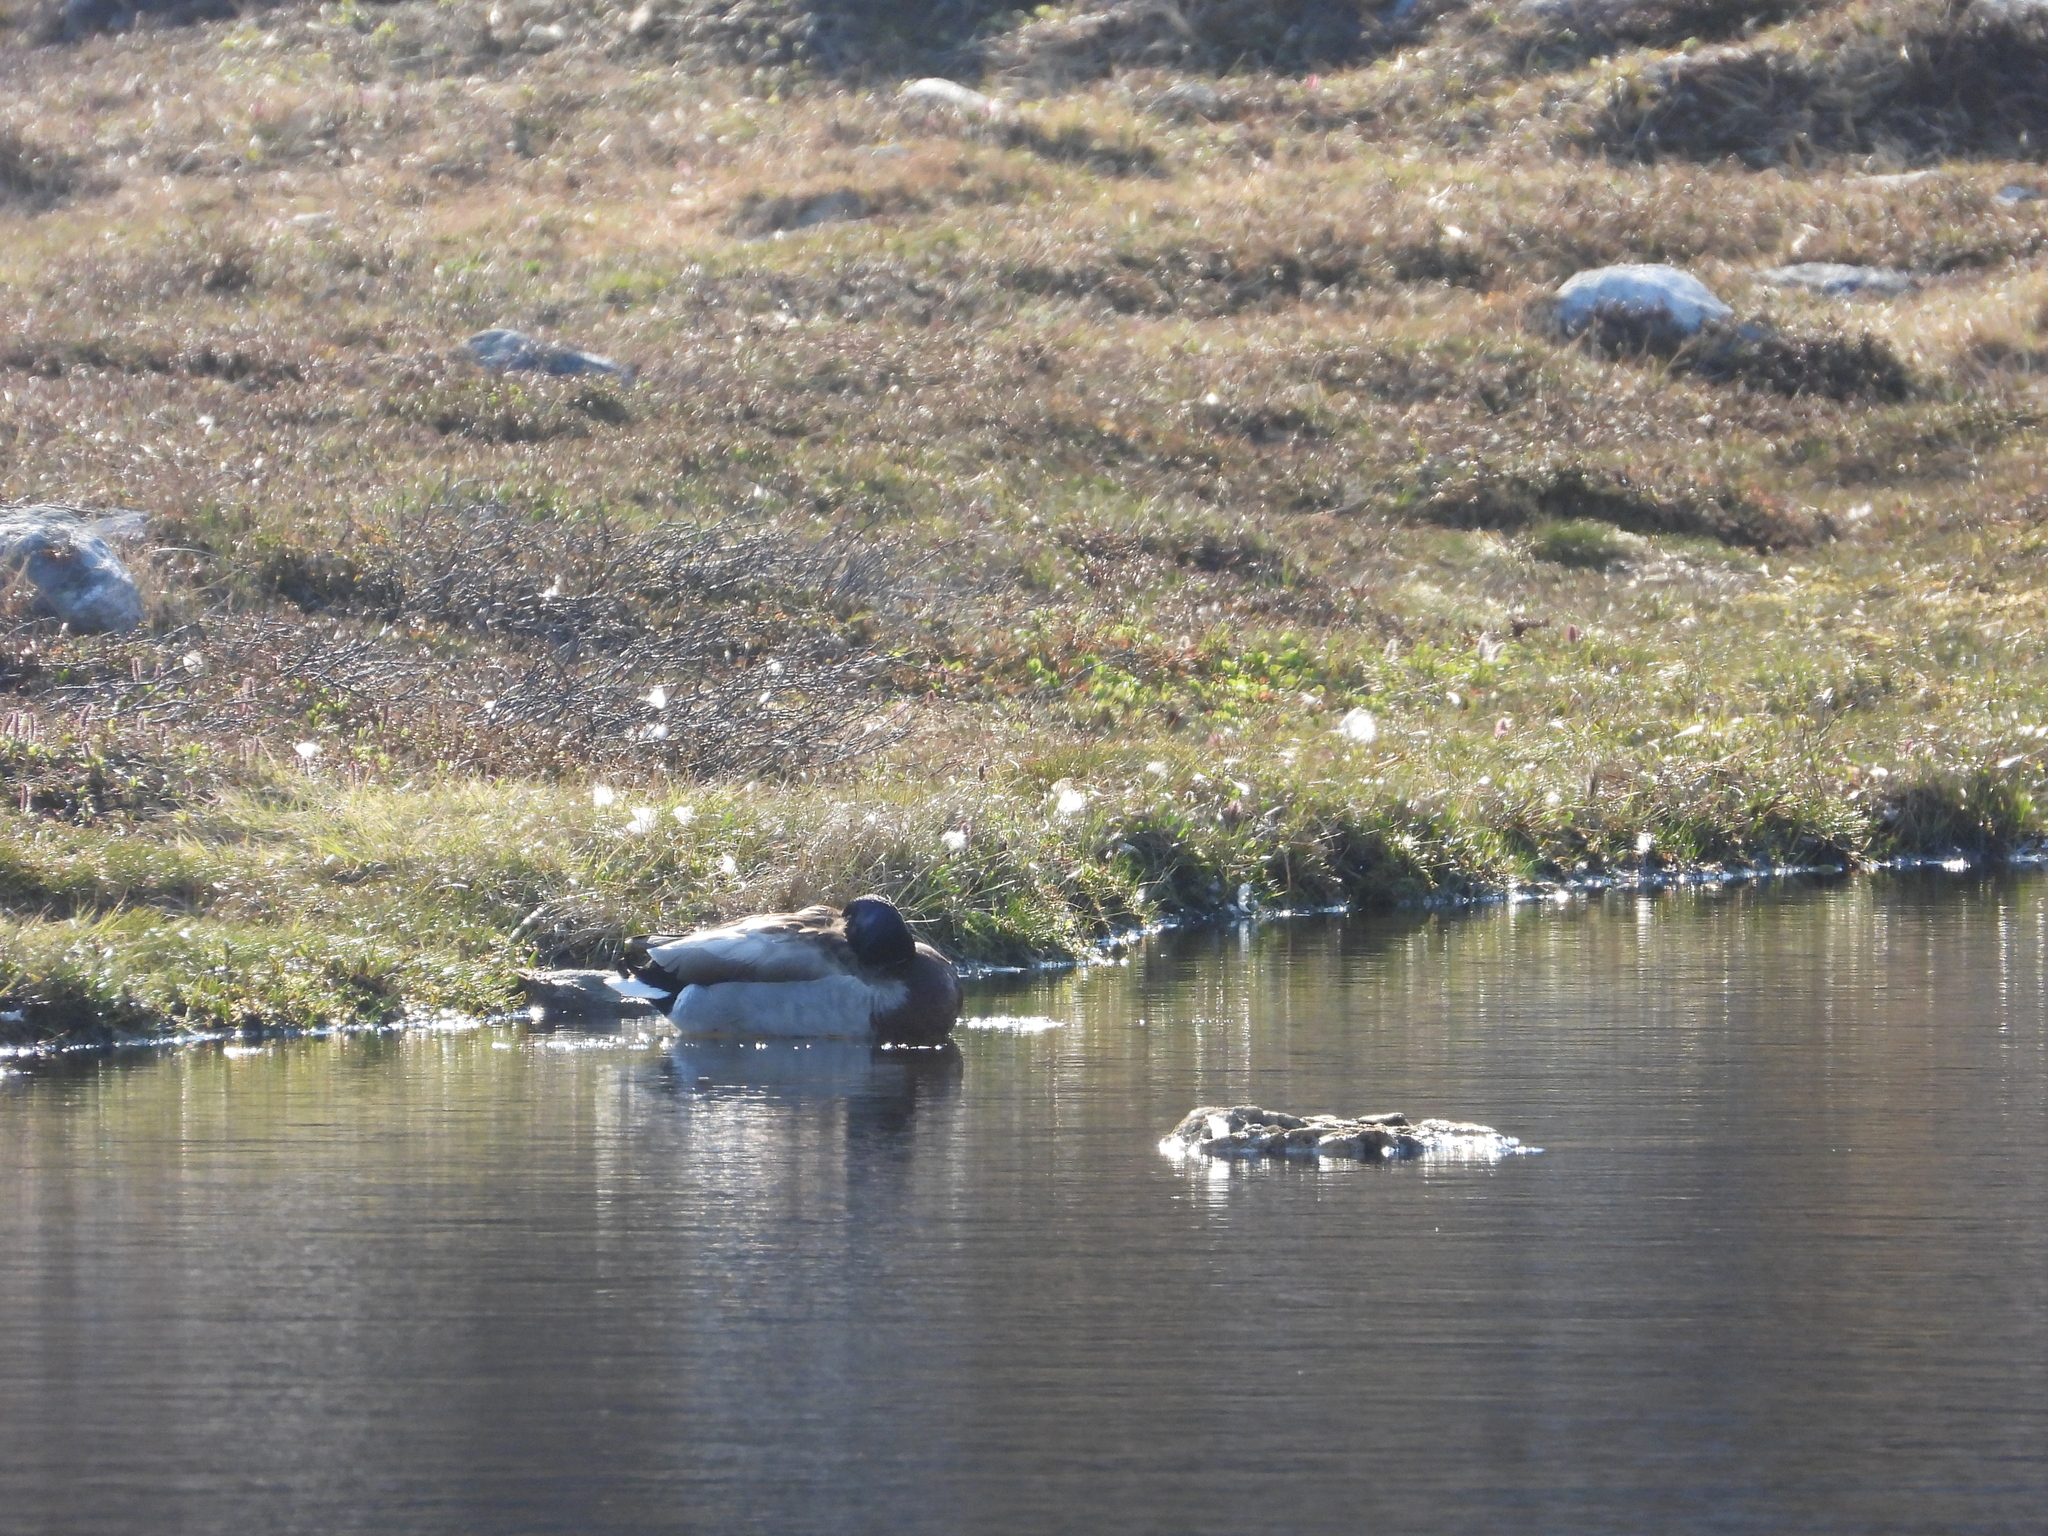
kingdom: Animalia
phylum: Chordata
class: Aves
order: Anseriformes
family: Anatidae
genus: Anas
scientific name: Anas platyrhynchos
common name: Mallard
